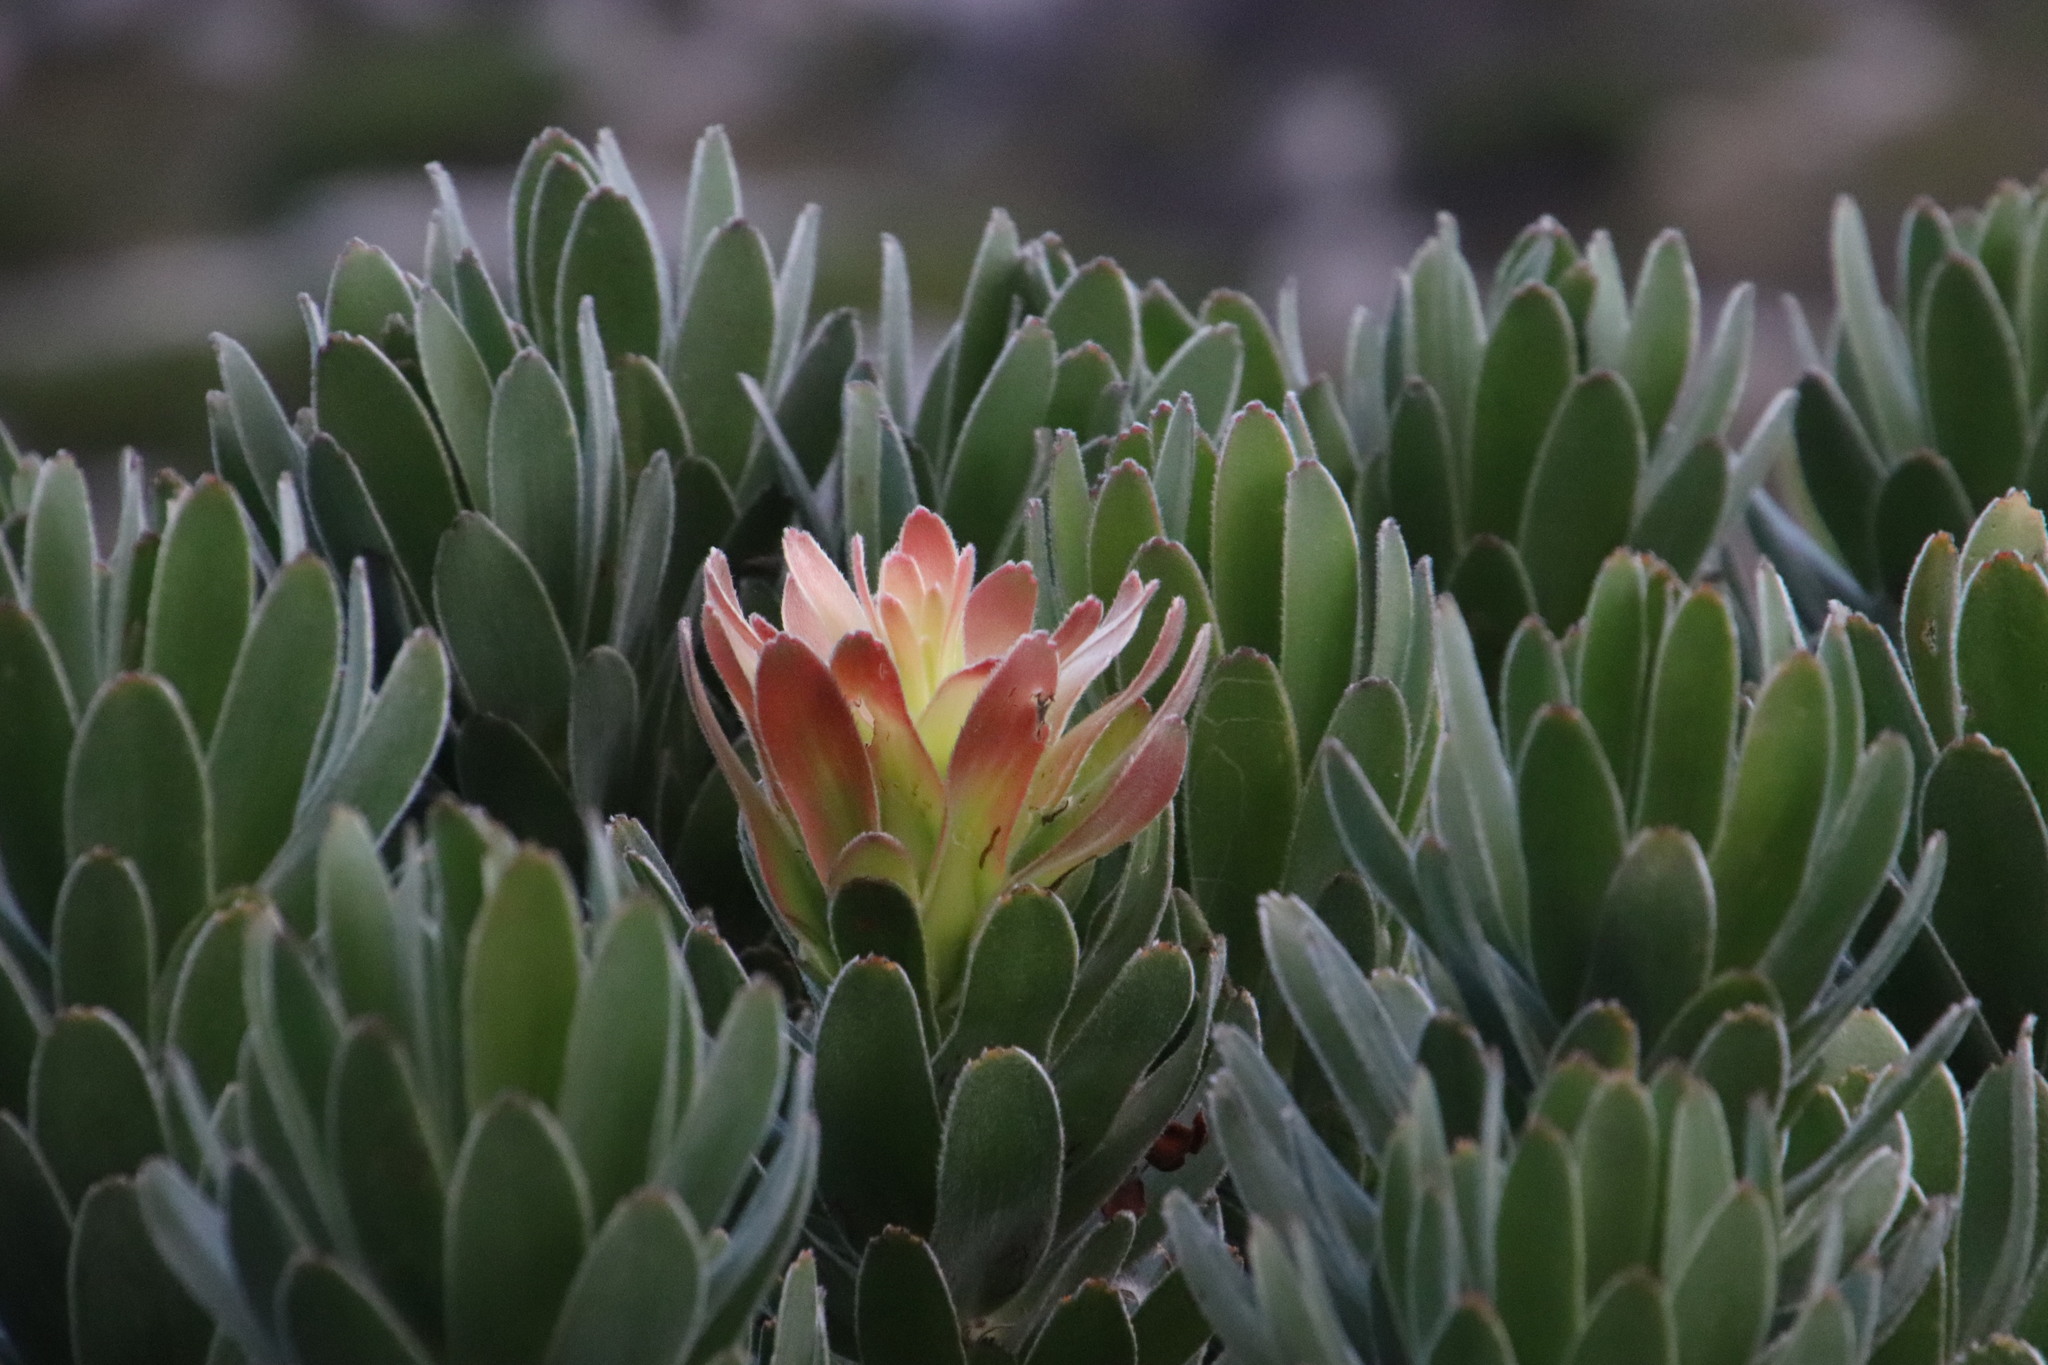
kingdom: Plantae
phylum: Tracheophyta
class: Magnoliopsida
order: Proteales
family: Proteaceae
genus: Mimetes
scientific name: Mimetes fimbriifolius
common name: Fringed bottlebrush
